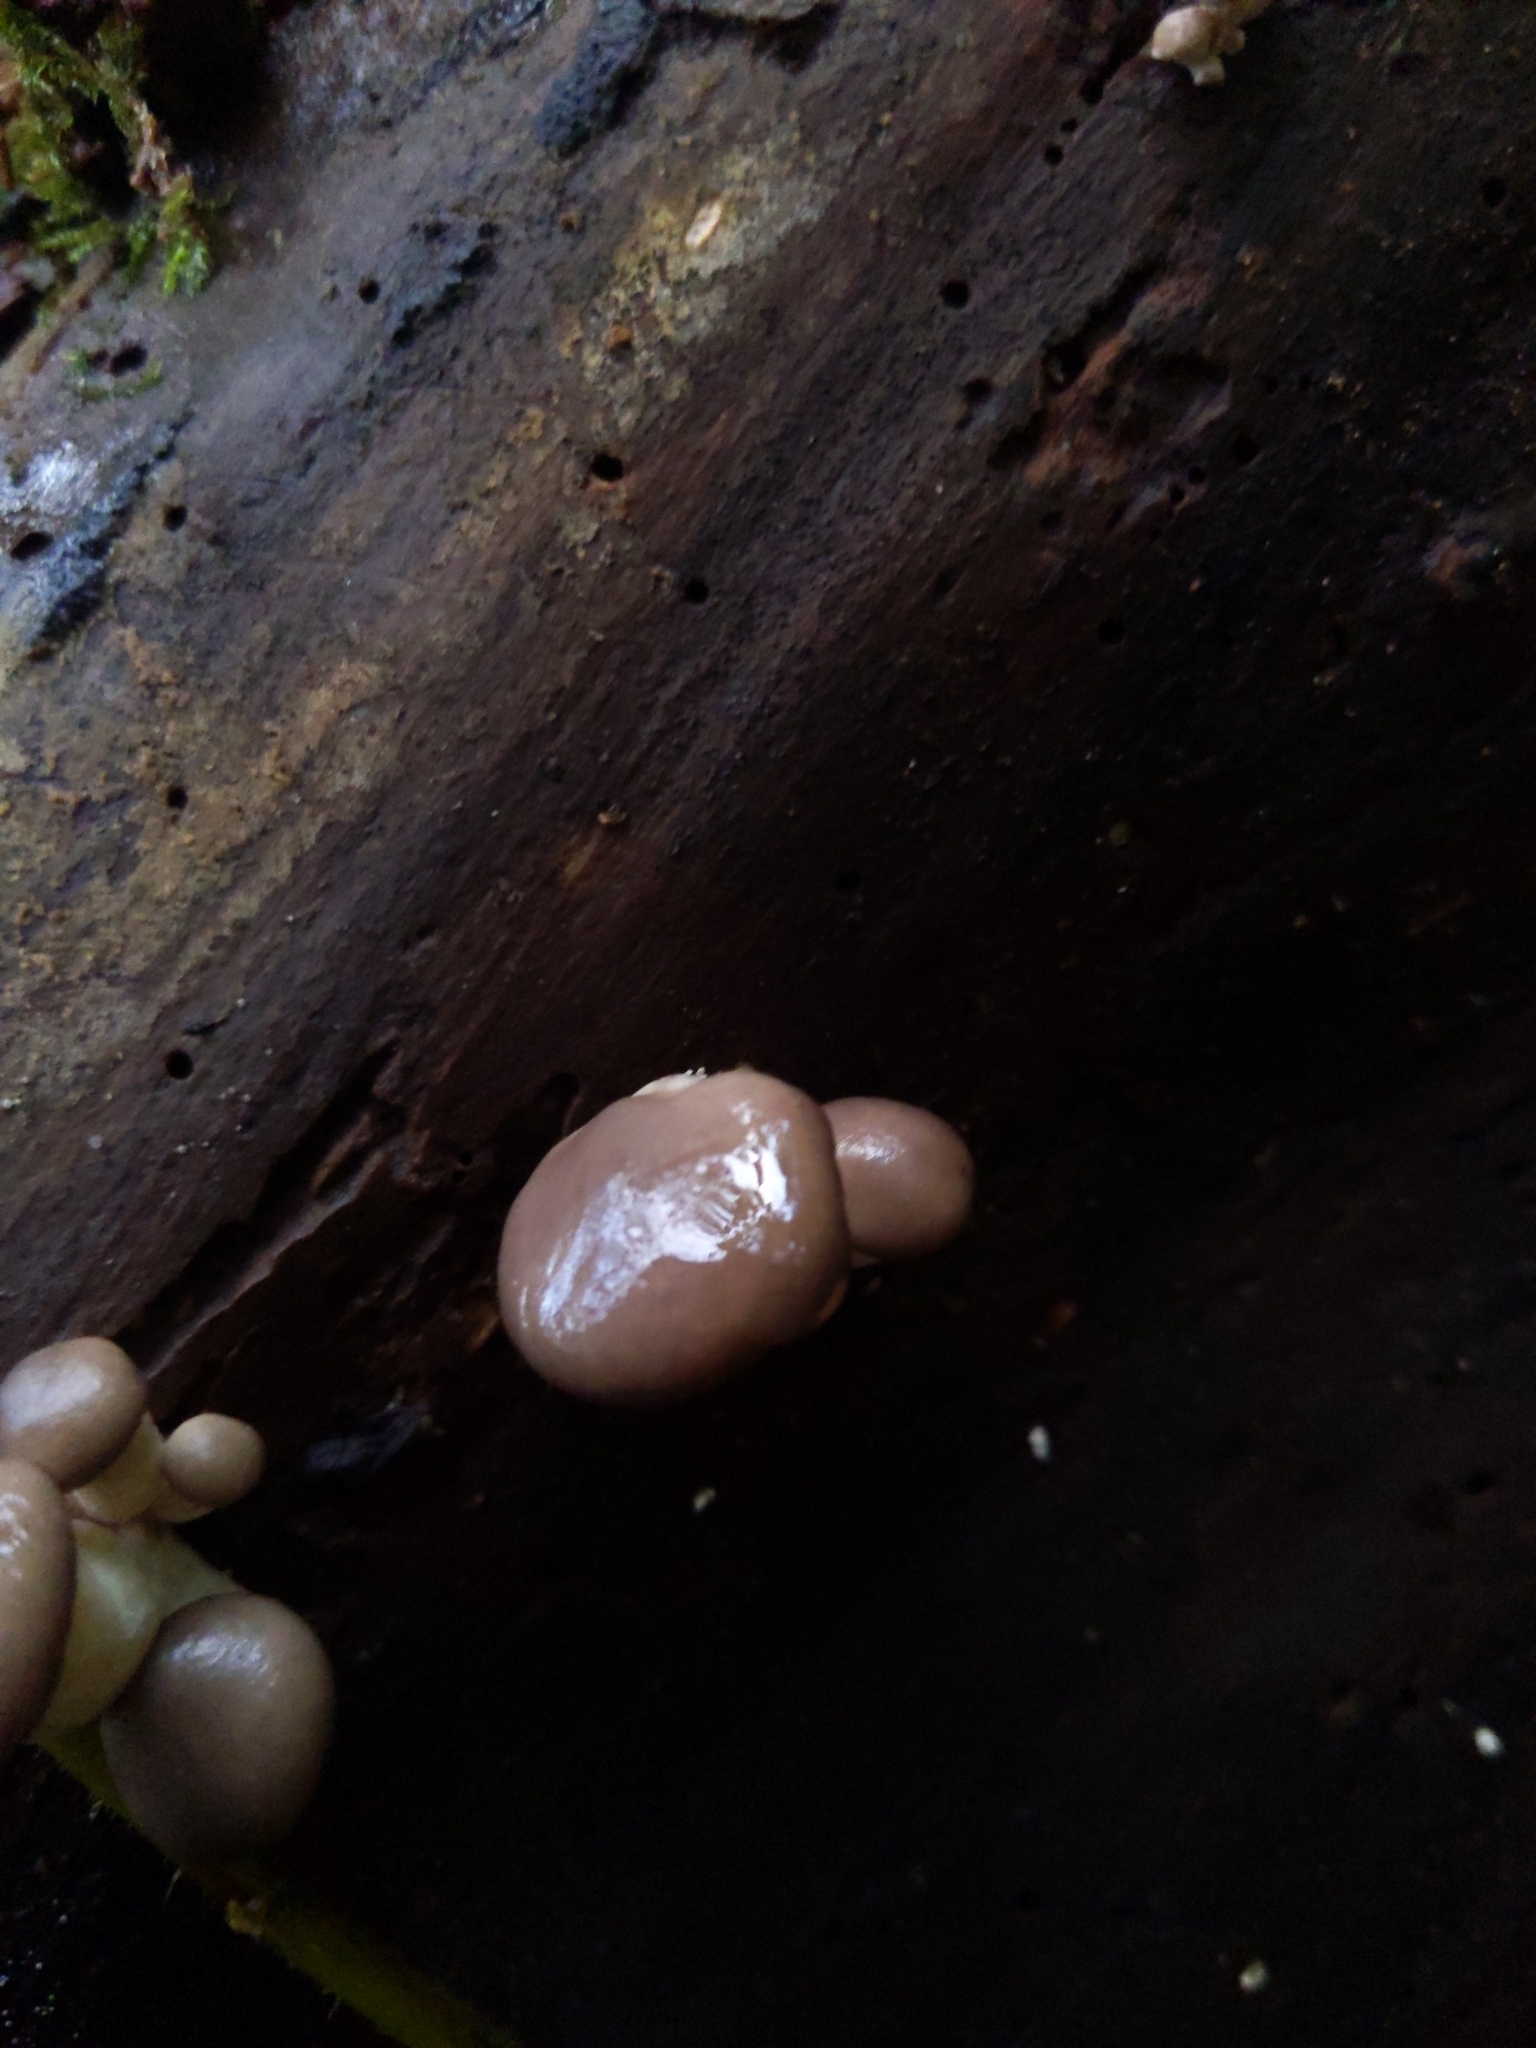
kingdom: Fungi
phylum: Basidiomycota
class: Agaricomycetes
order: Agaricales
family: Pleurotaceae
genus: Pleurotus
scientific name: Pleurotus ostreatus
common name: Oyster mushroom
